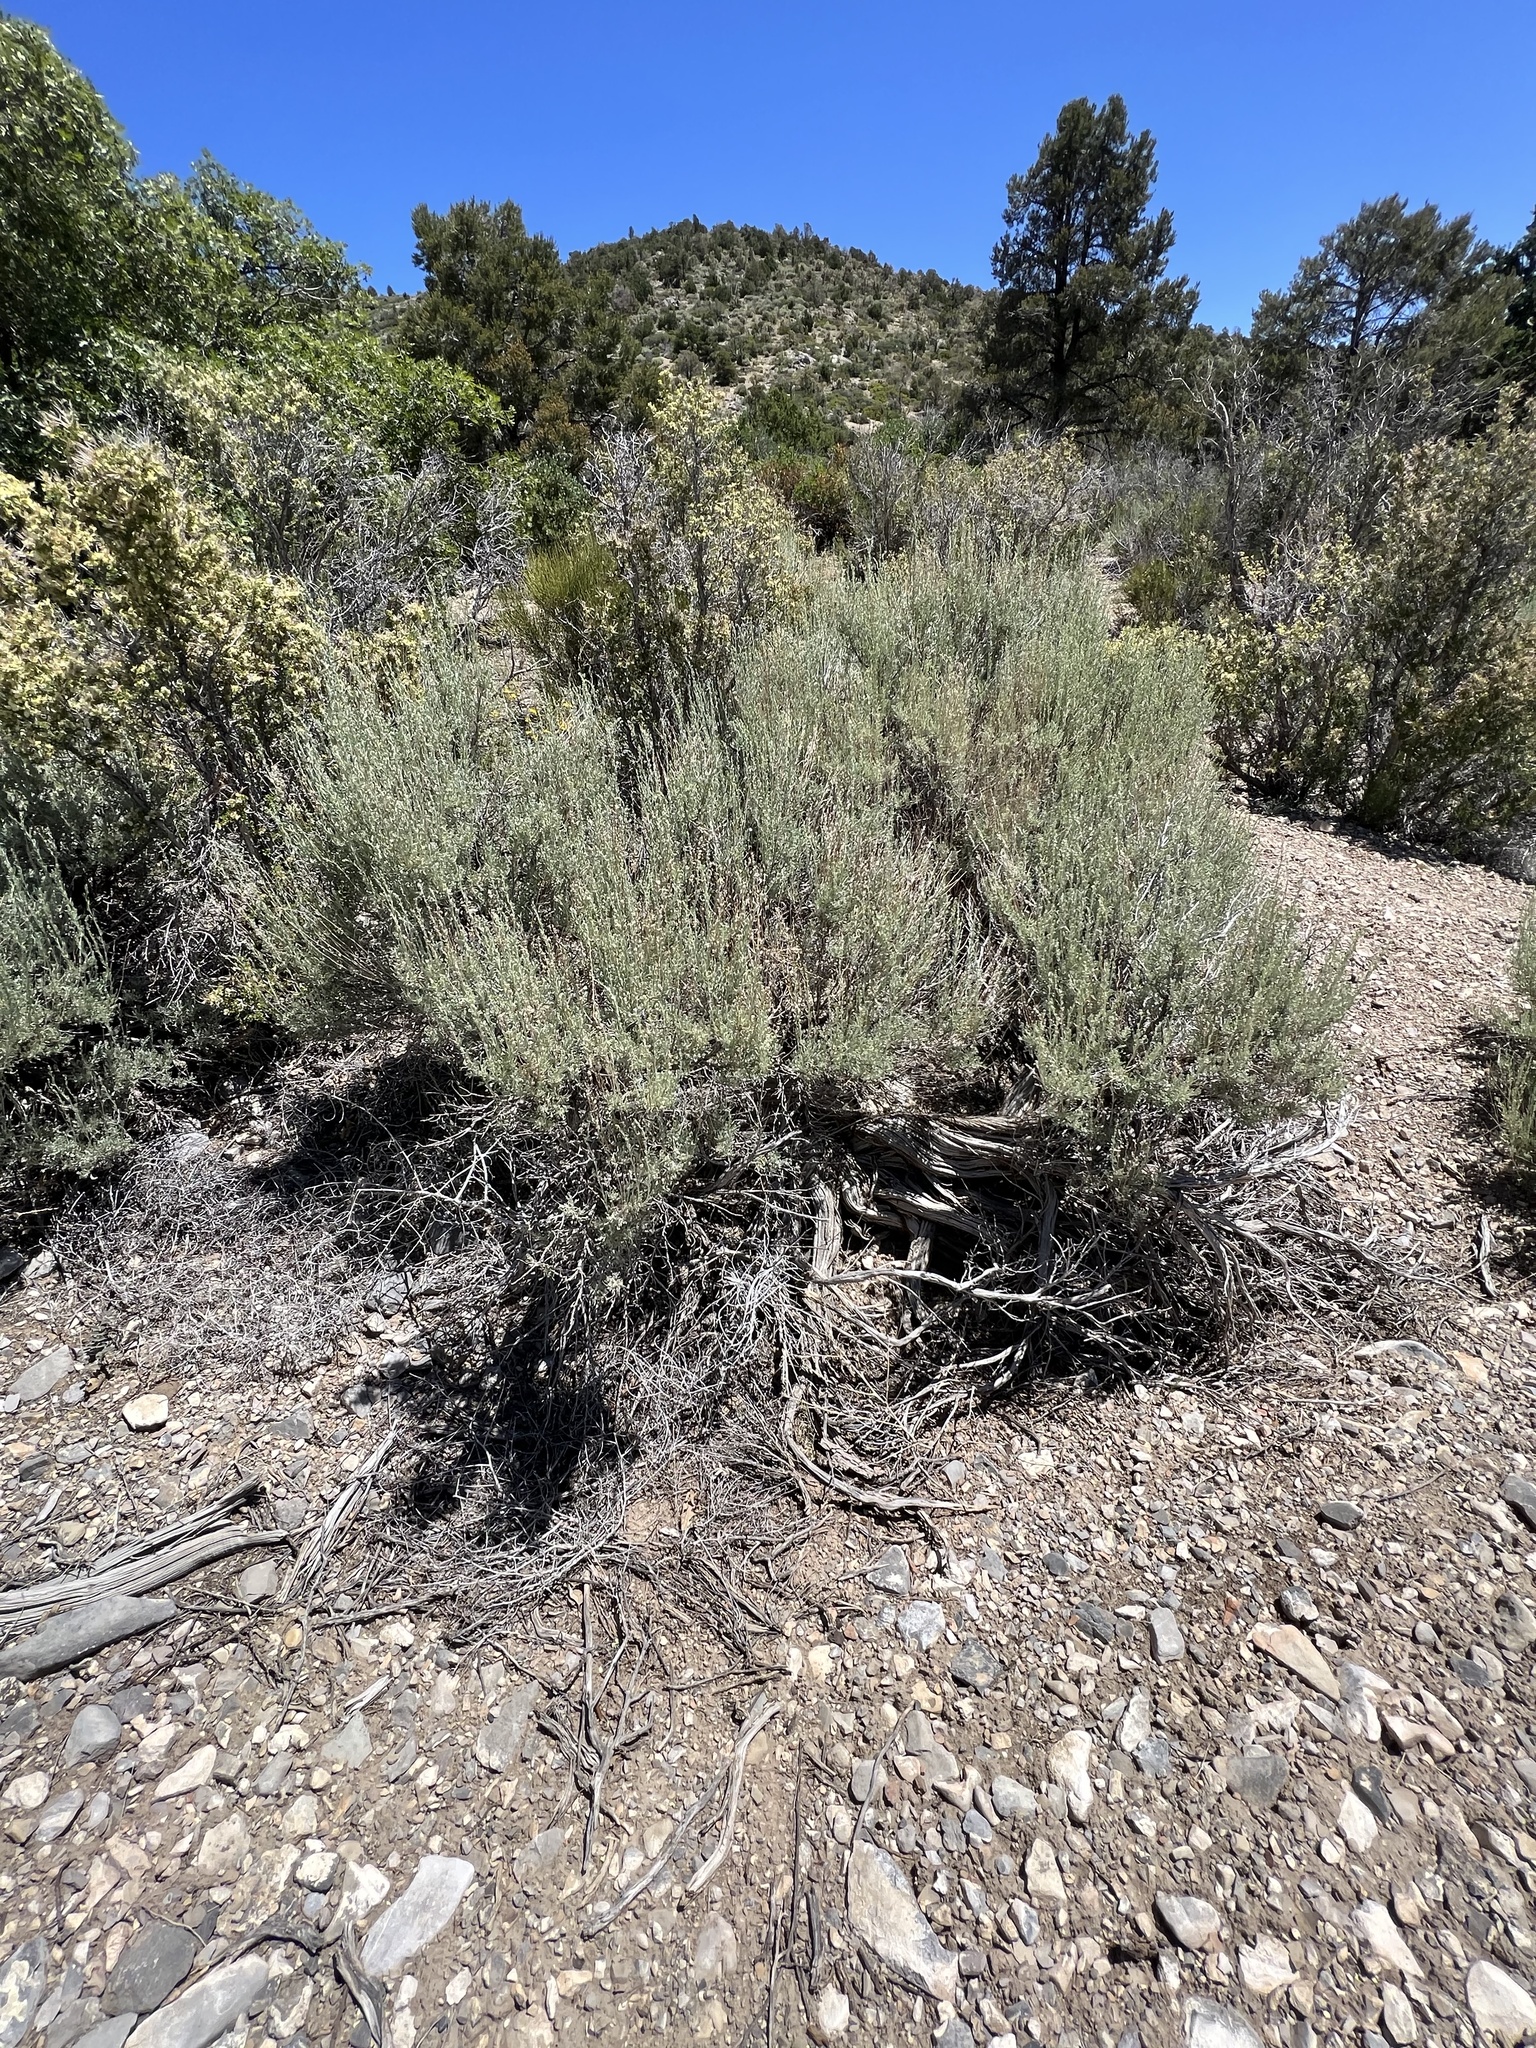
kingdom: Plantae
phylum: Tracheophyta
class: Magnoliopsida
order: Asterales
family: Asteraceae
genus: Artemisia
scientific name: Artemisia tridentata
